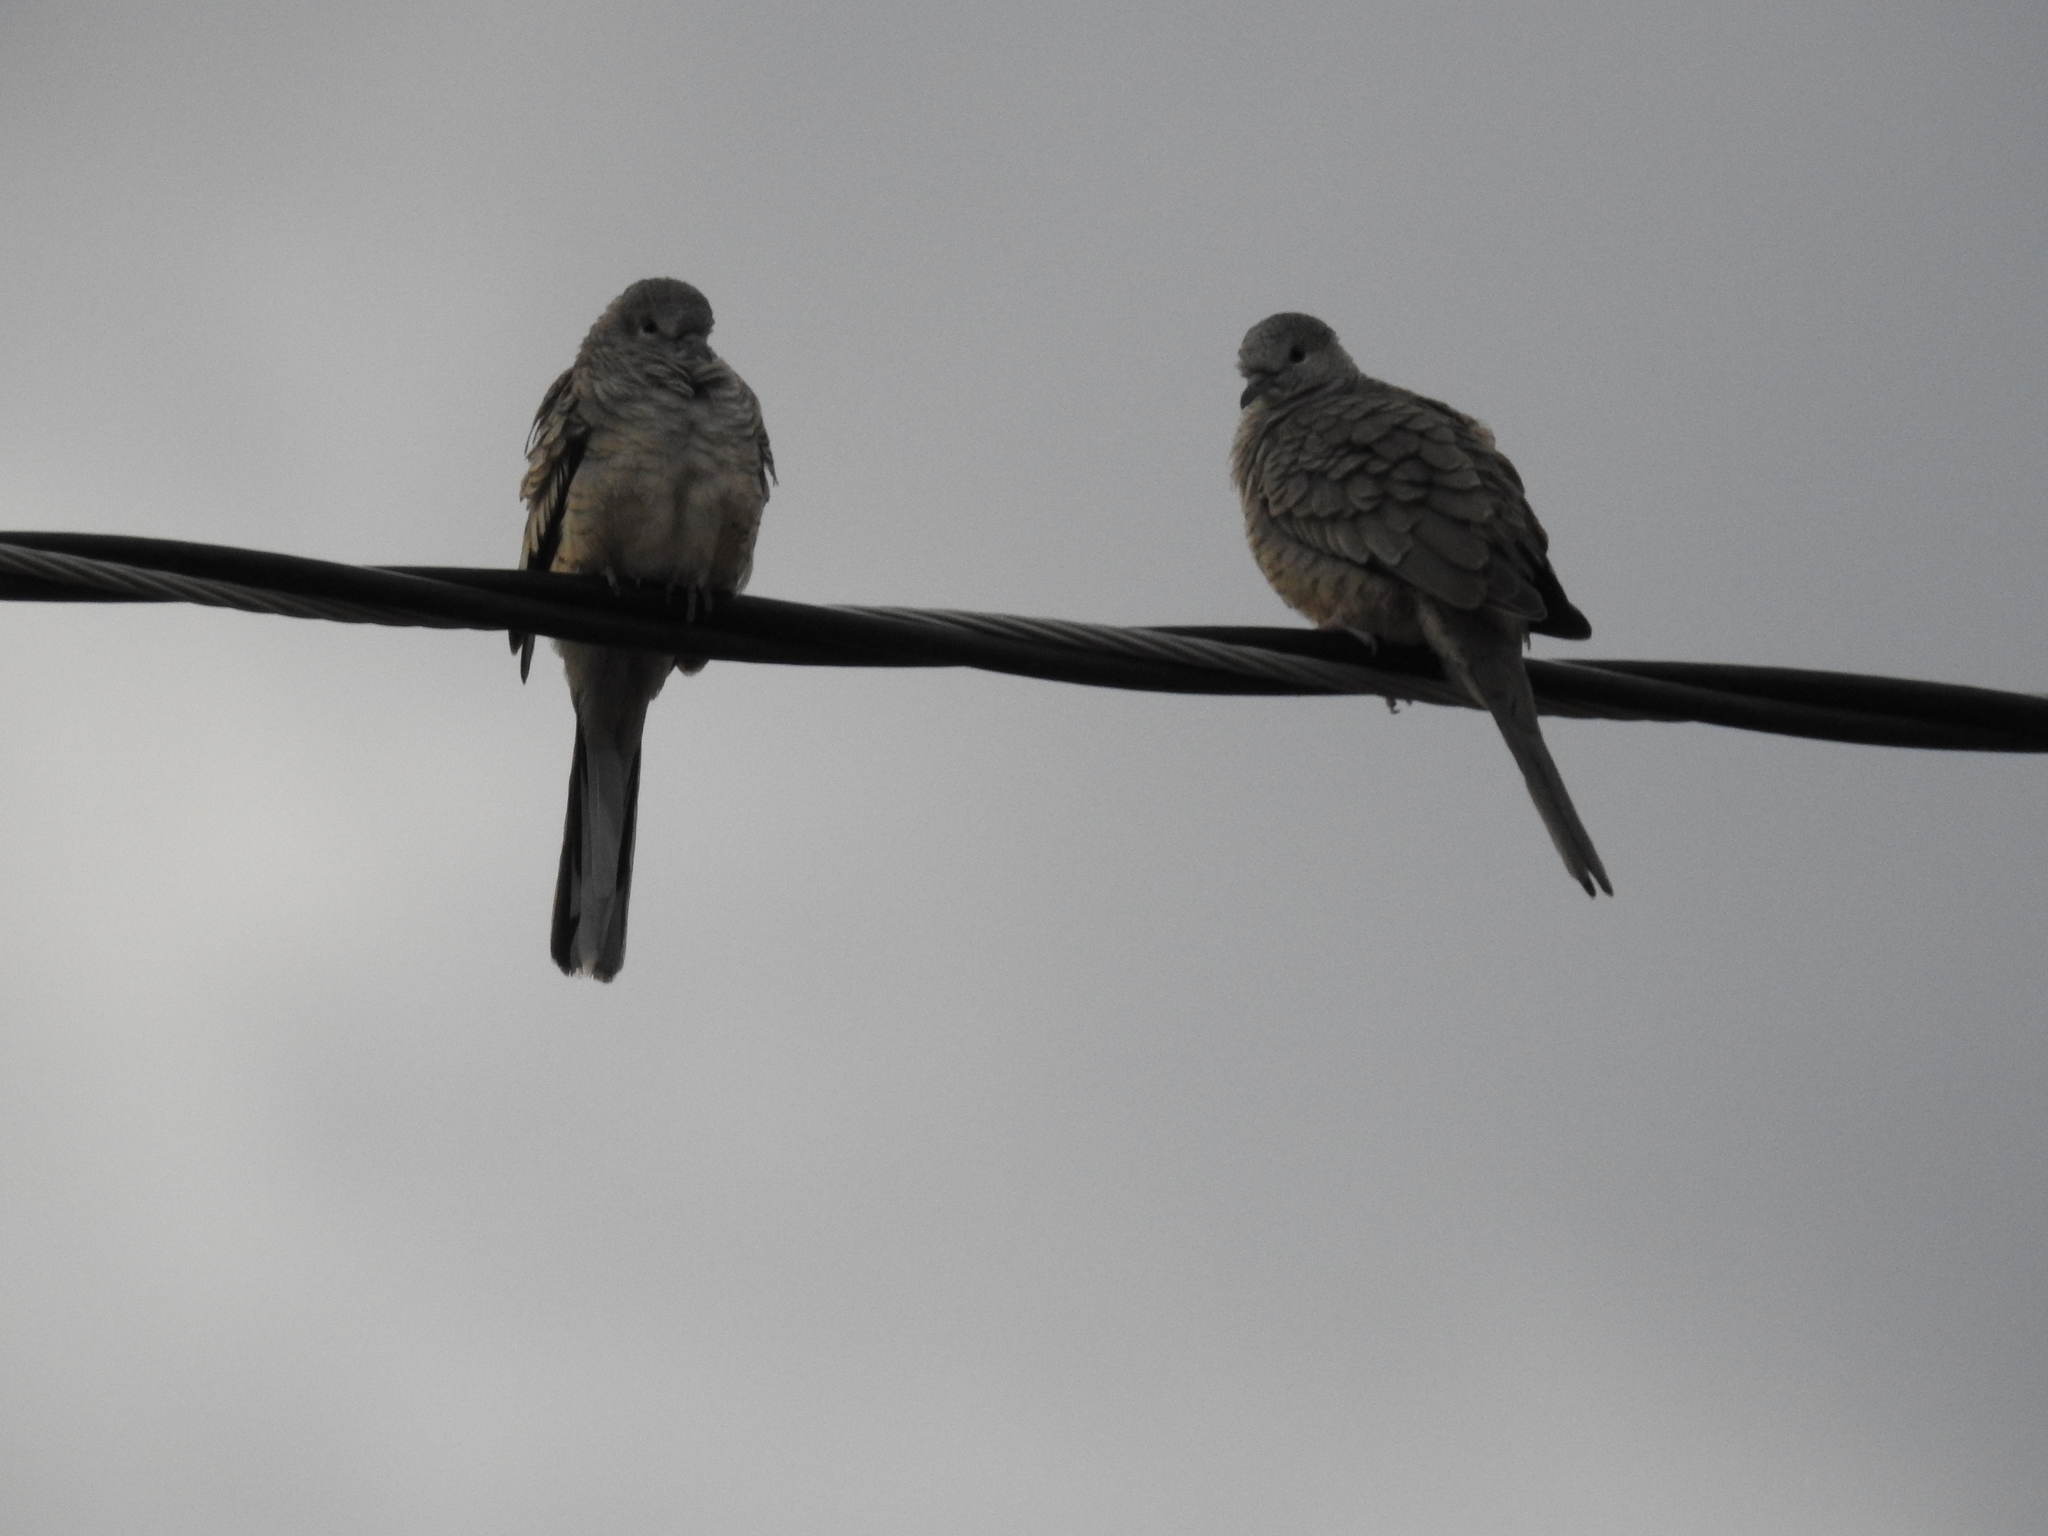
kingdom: Animalia
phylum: Chordata
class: Aves
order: Columbiformes
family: Columbidae
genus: Columbina
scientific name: Columbina inca
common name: Inca dove
